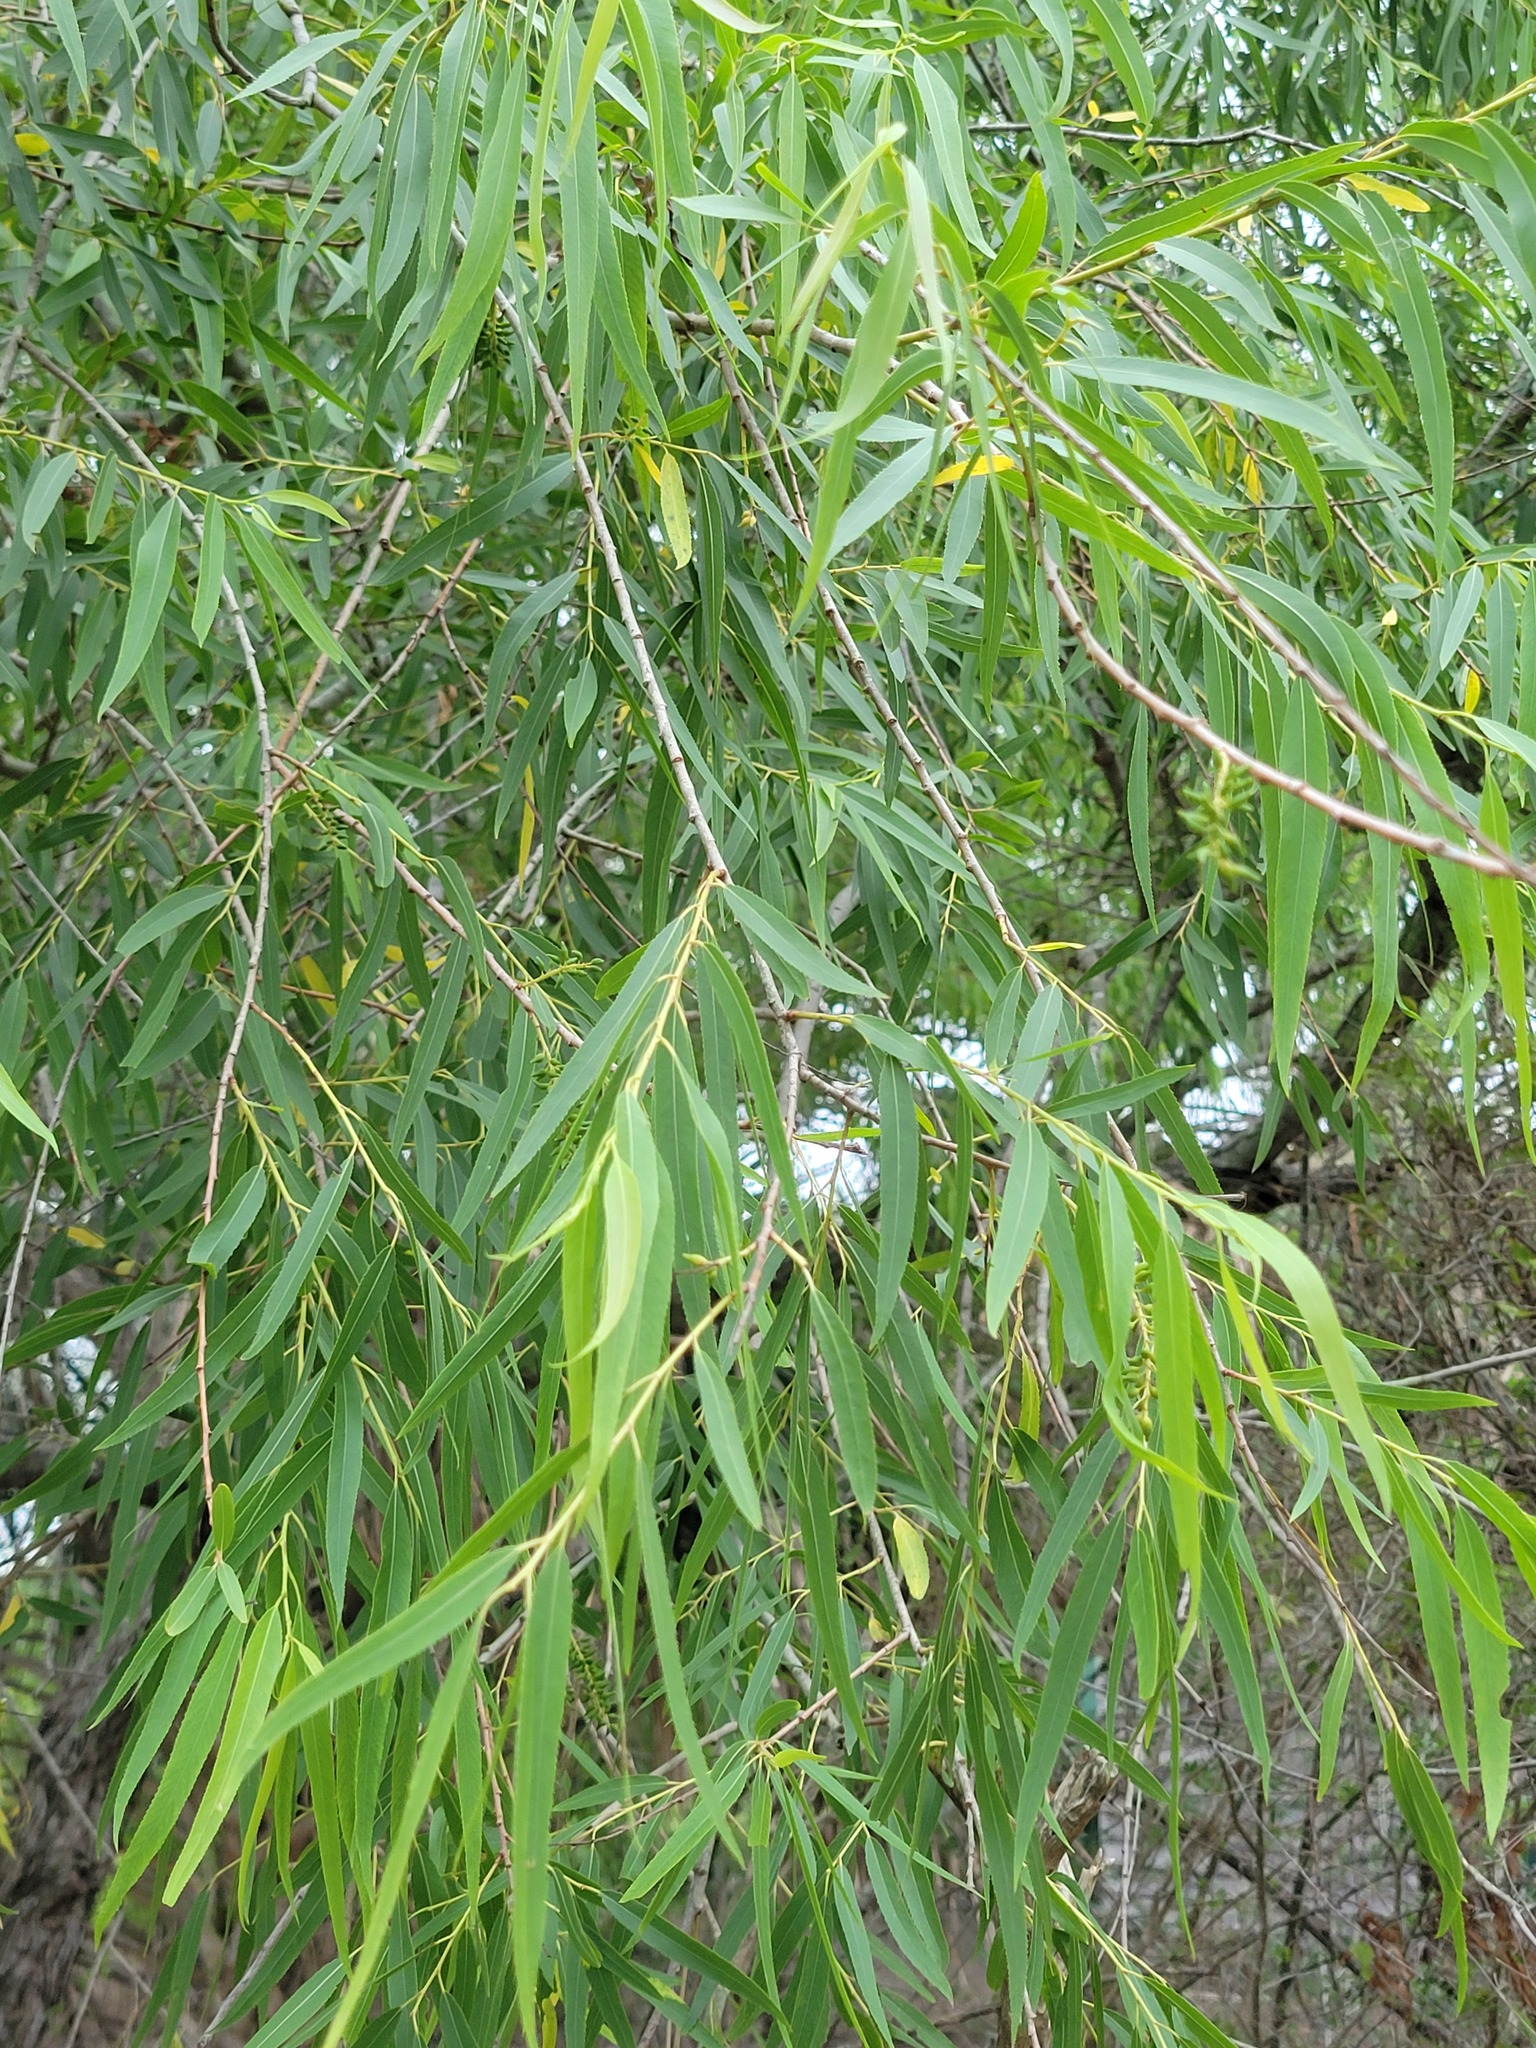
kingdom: Plantae
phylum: Tracheophyta
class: Magnoliopsida
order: Malpighiales
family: Salicaceae
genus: Salix
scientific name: Salix nigra
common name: Black willow
